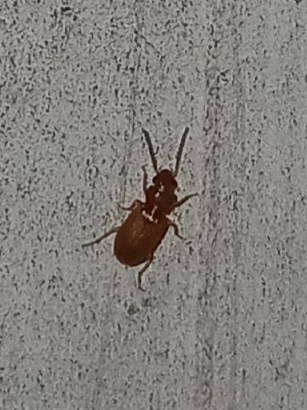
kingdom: Animalia
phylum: Arthropoda
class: Insecta
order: Coleoptera
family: Carabidae
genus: Acupalpus
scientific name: Acupalpus testaceus
